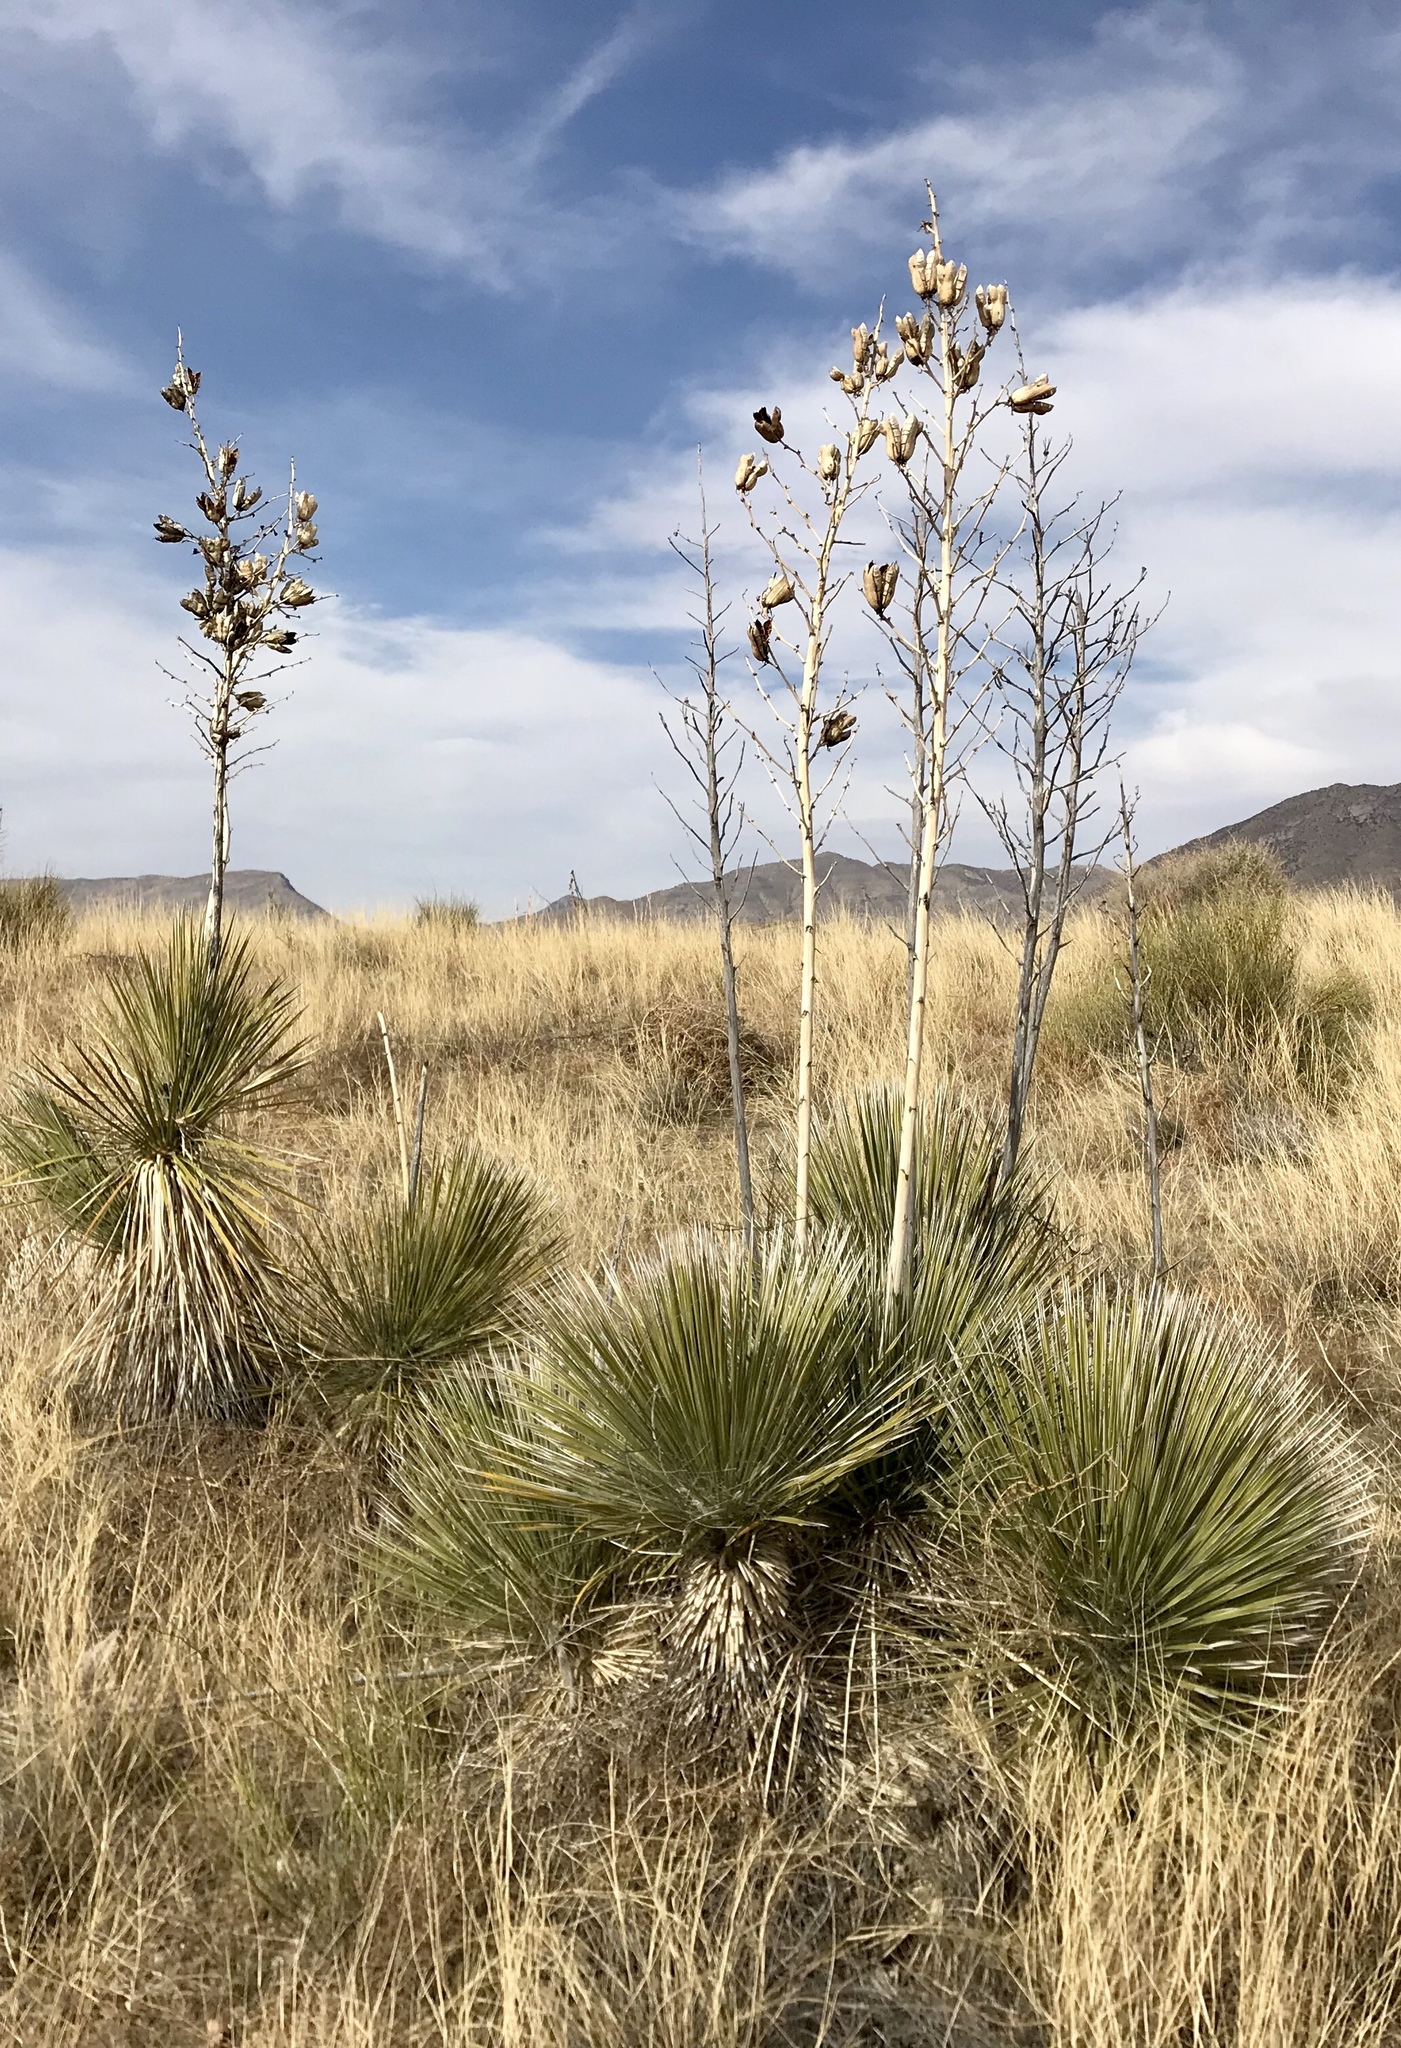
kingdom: Plantae
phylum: Tracheophyta
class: Liliopsida
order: Asparagales
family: Asparagaceae
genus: Yucca
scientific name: Yucca elata
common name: Palmella
